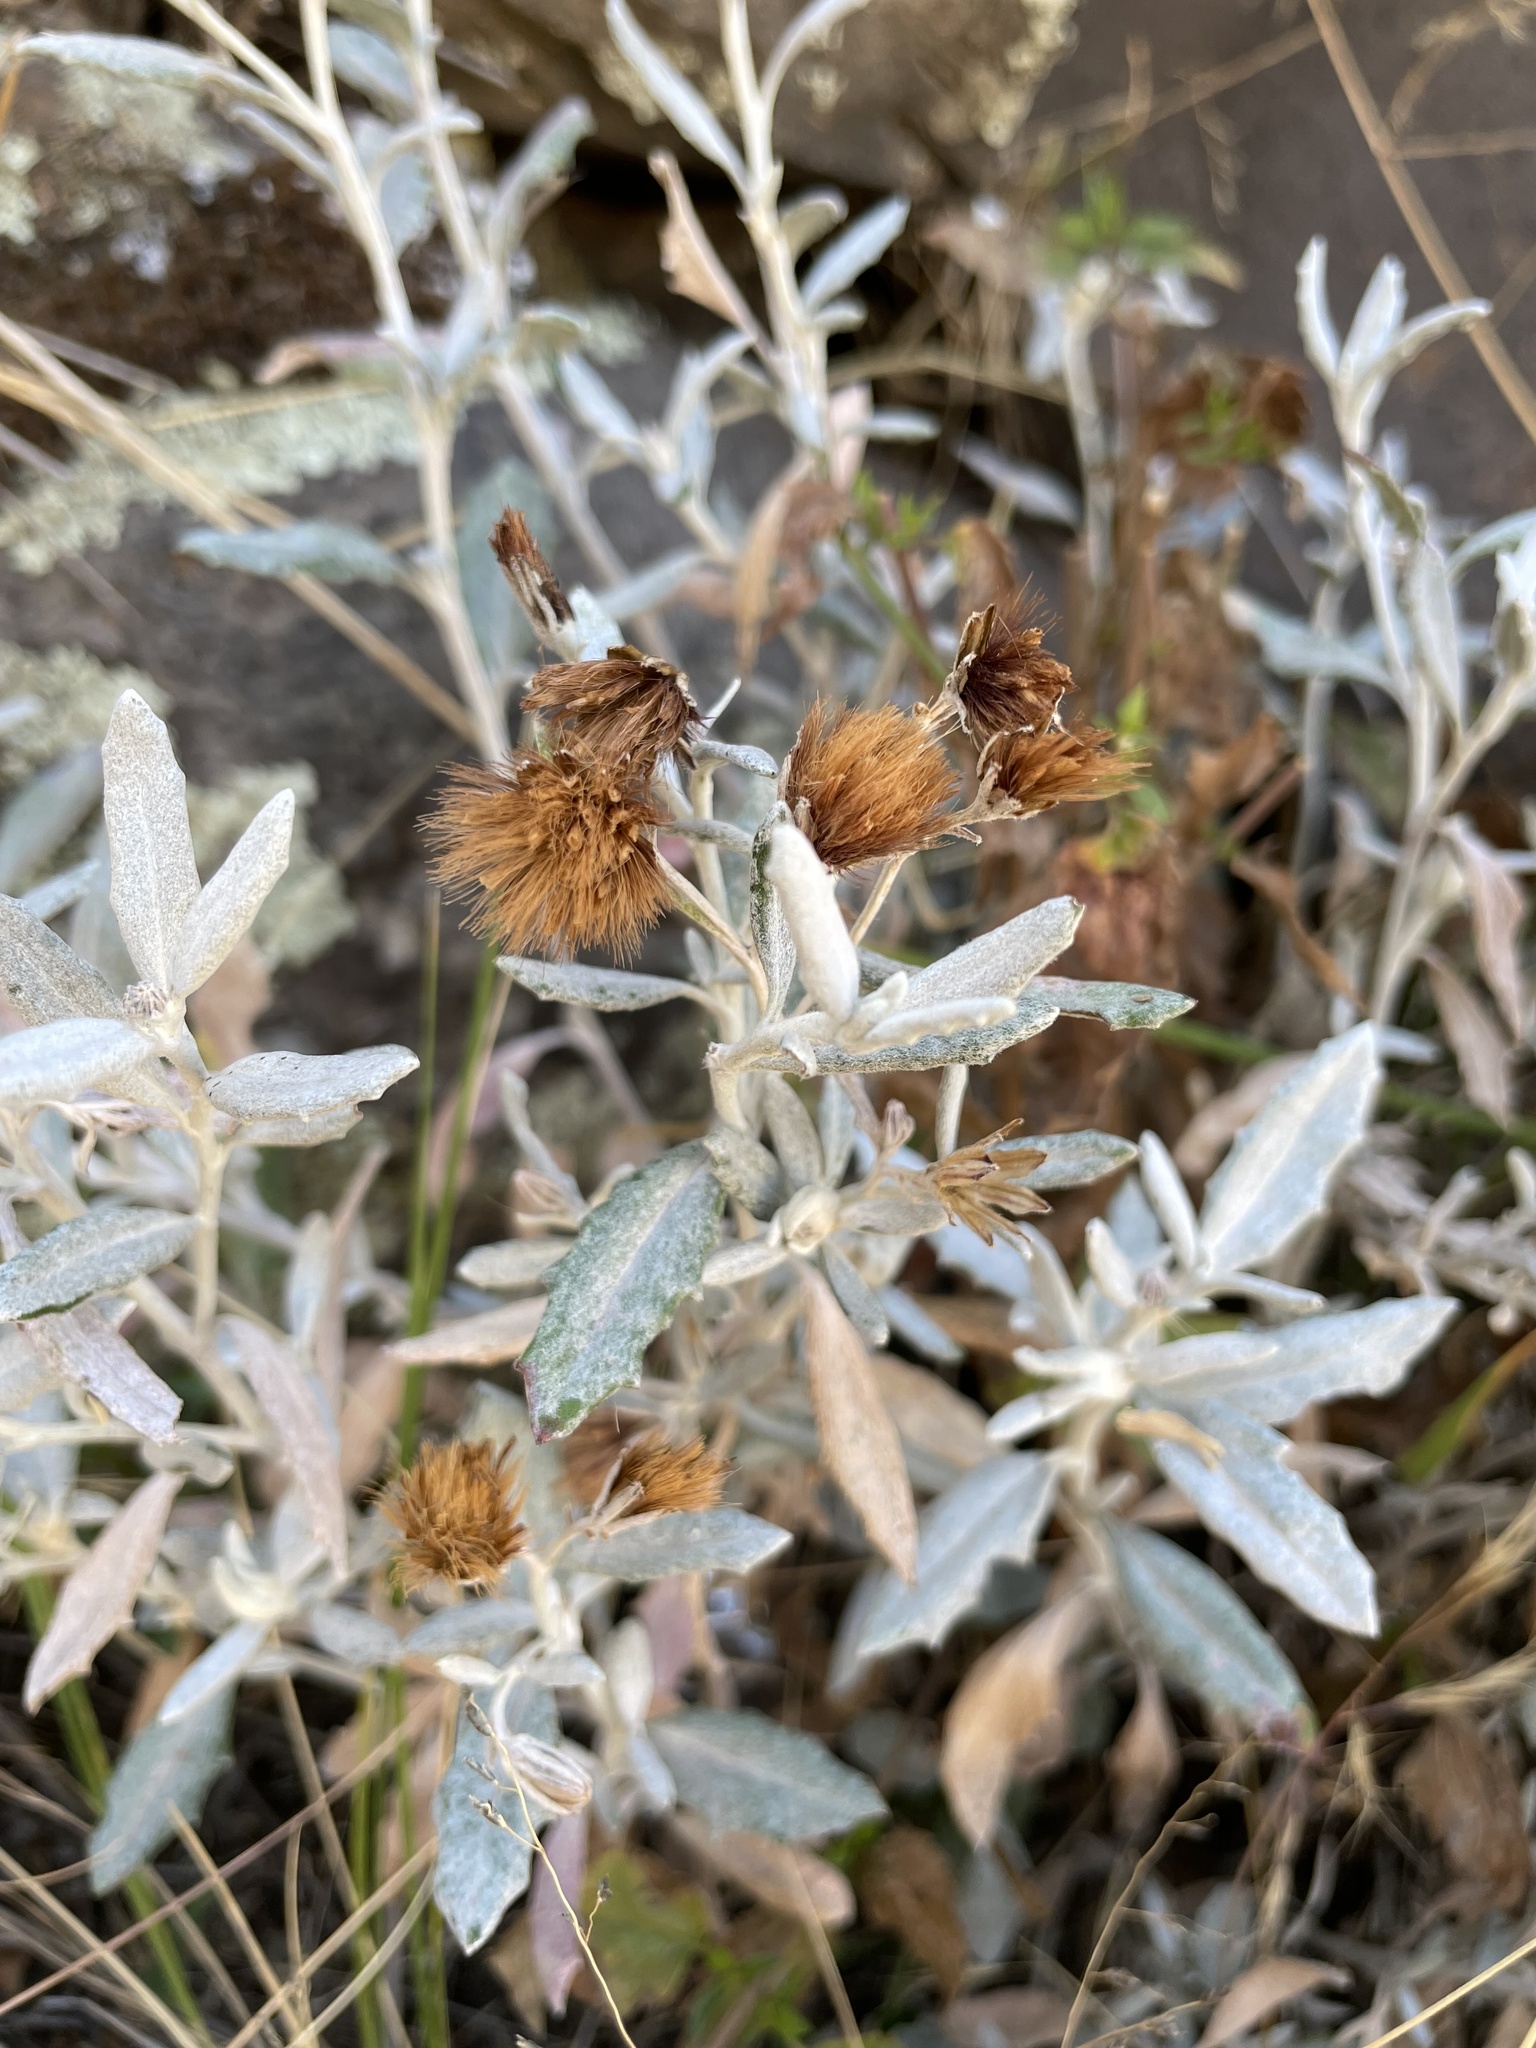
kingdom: Plantae
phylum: Tracheophyta
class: Magnoliopsida
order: Asterales
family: Asteraceae
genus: Chersodoma
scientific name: Chersodoma jodopappa
